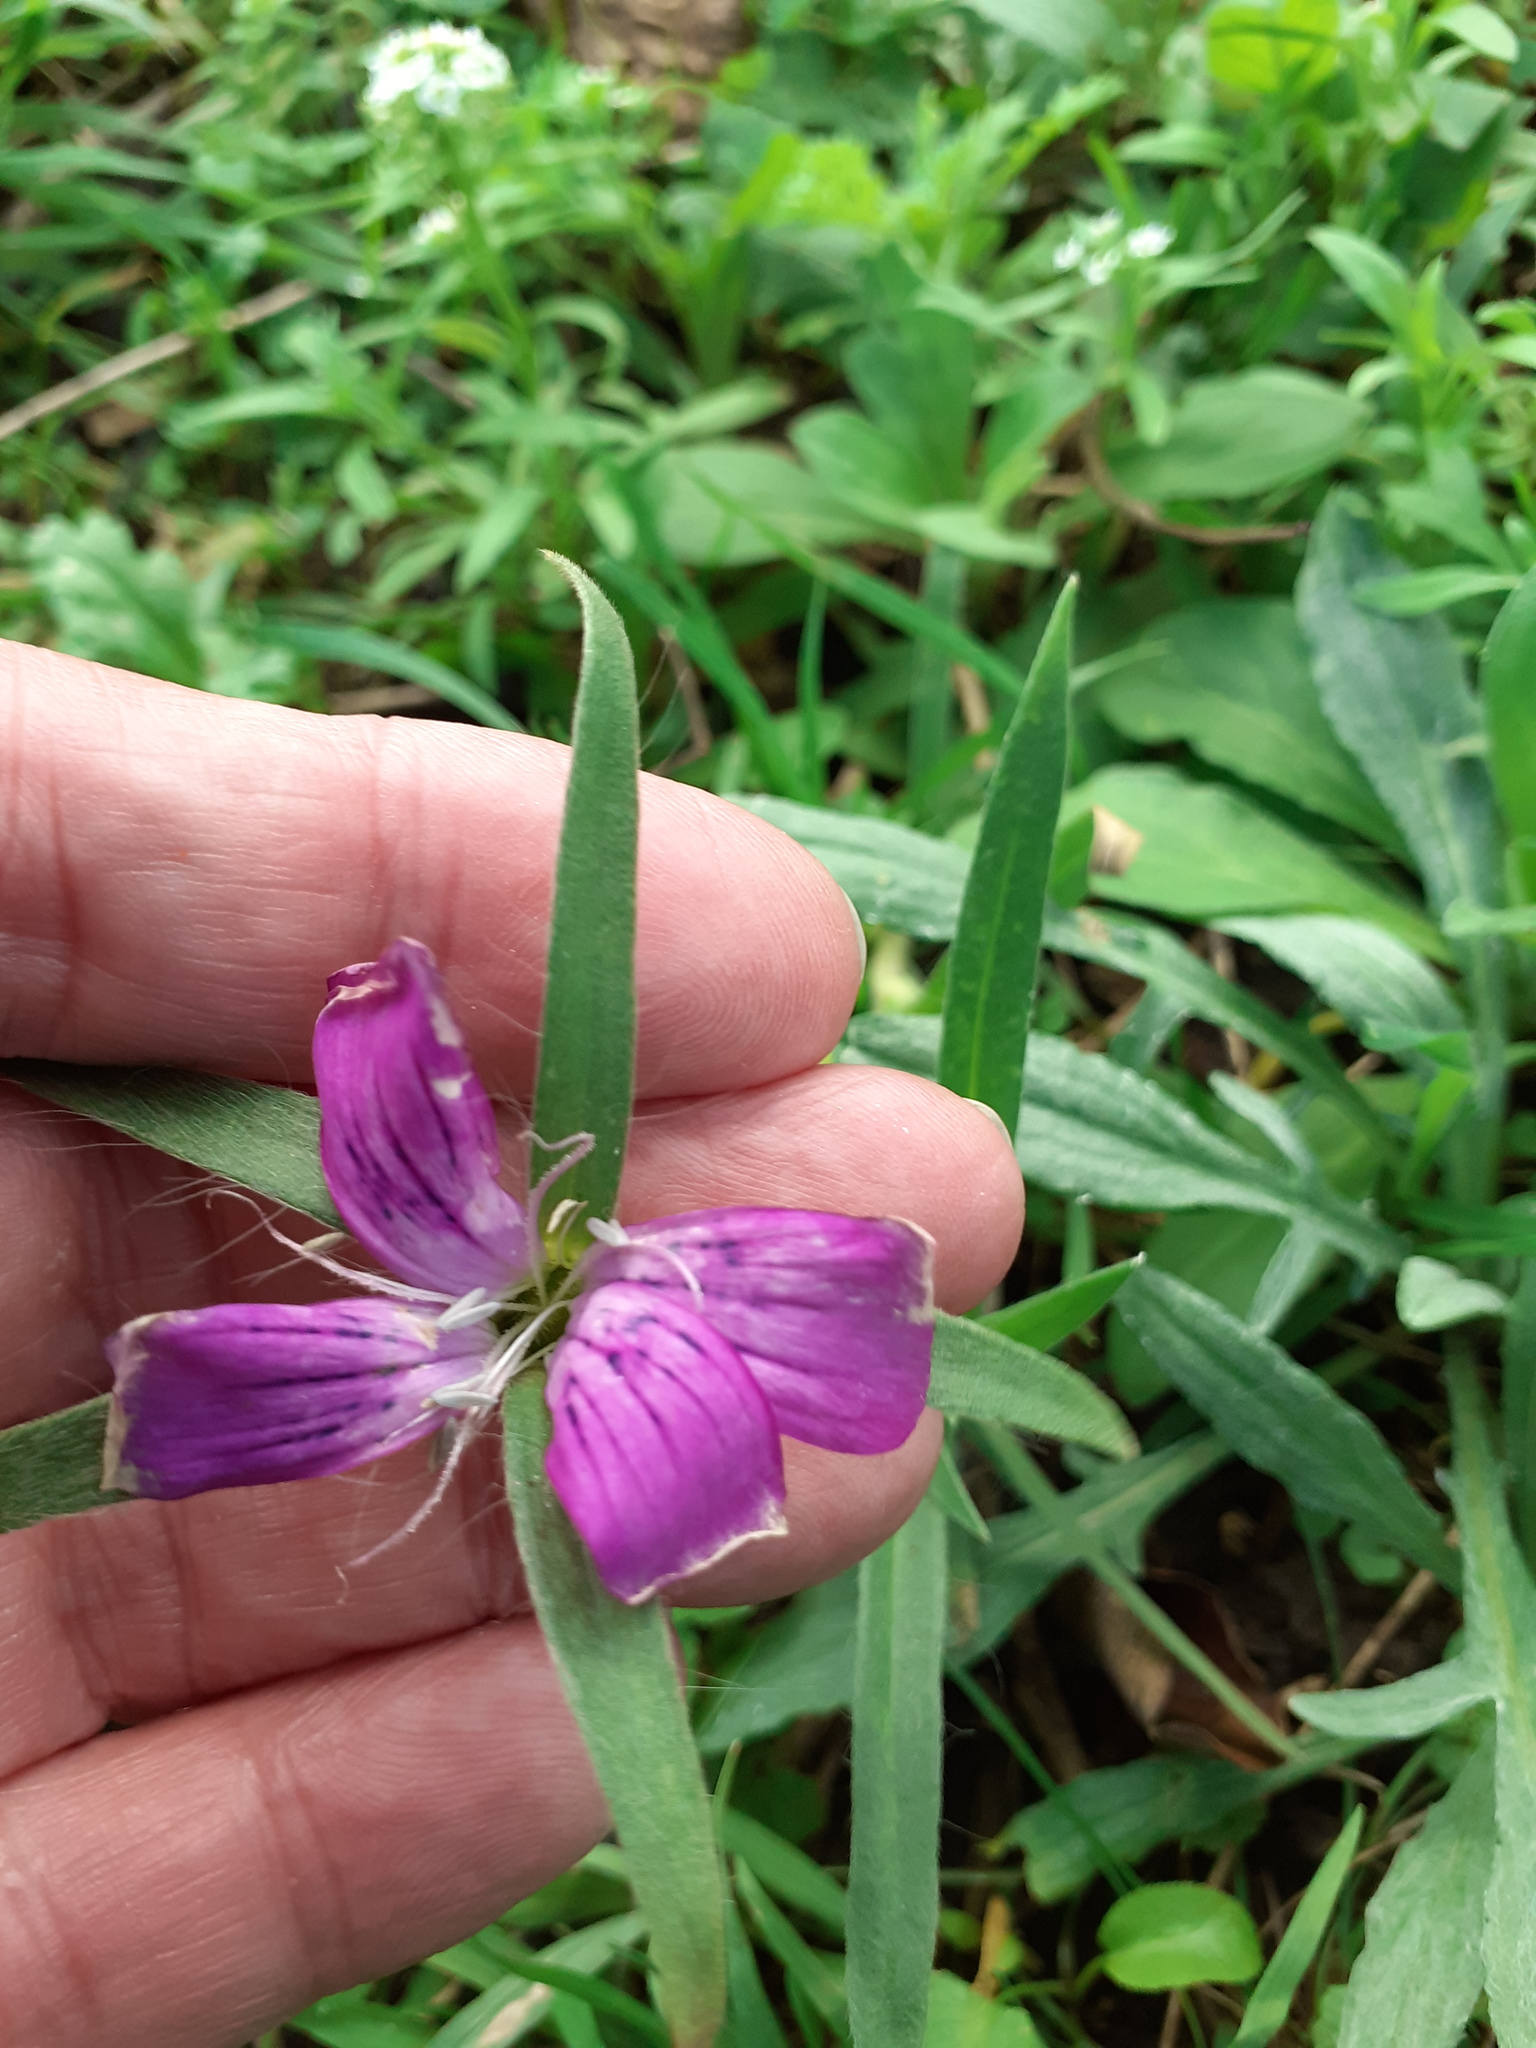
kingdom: Plantae
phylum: Tracheophyta
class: Magnoliopsida
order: Caryophyllales
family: Caryophyllaceae
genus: Agrostemma
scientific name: Agrostemma githago
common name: Common corncockle
